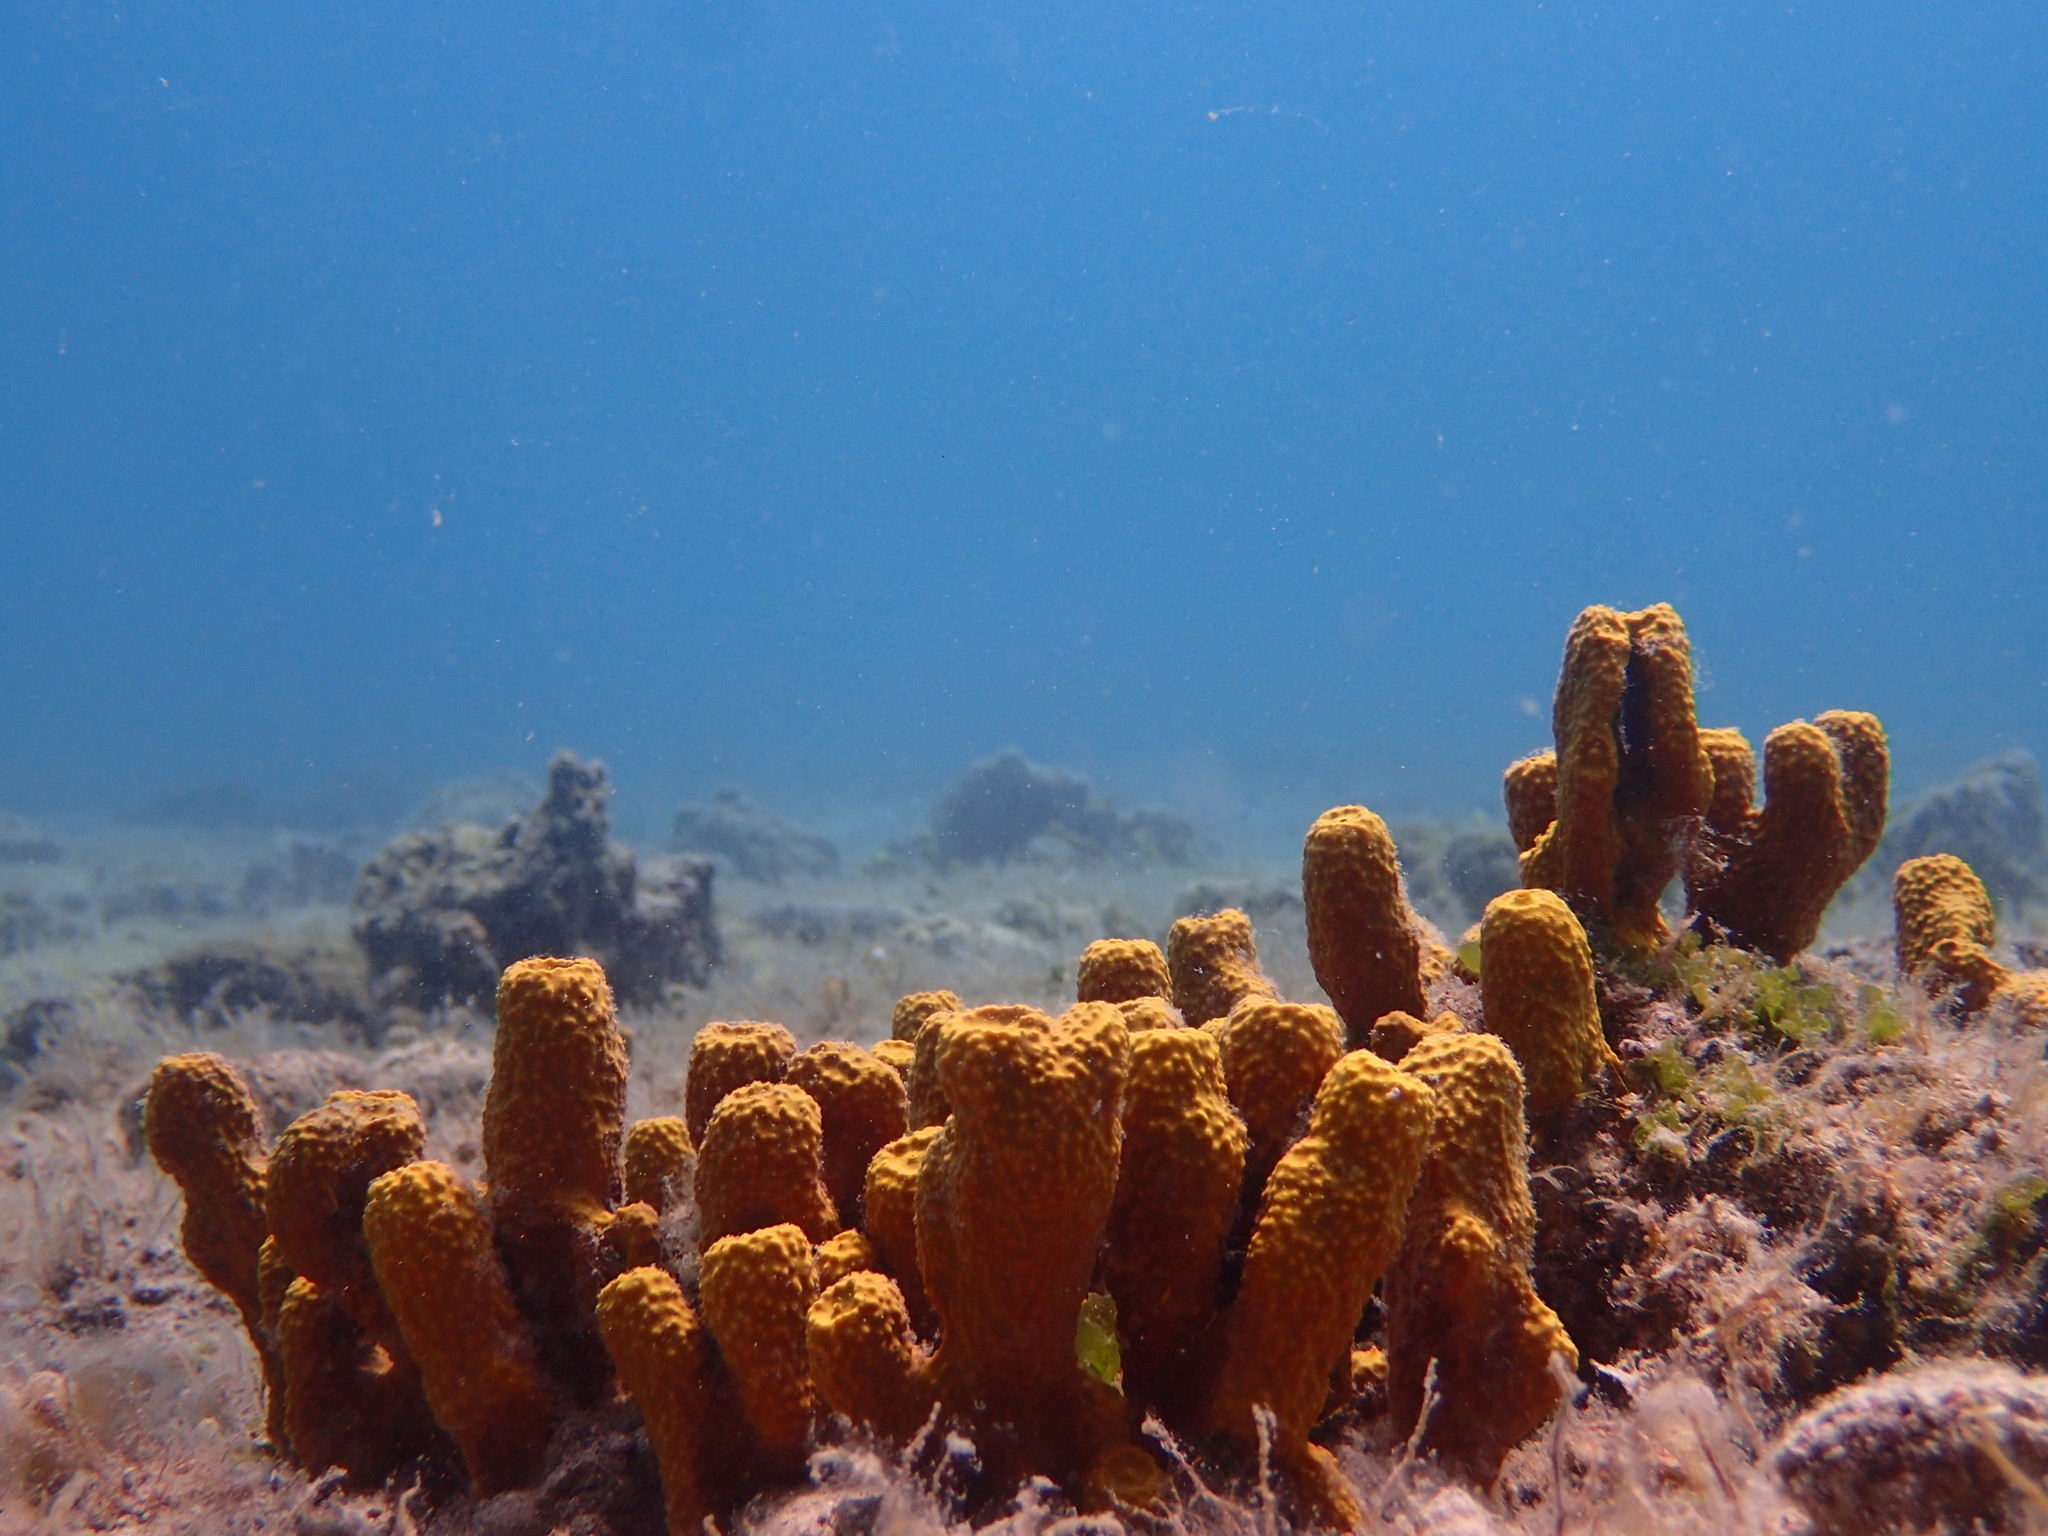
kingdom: Animalia
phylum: Porifera
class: Demospongiae
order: Verongiida
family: Aplysinidae
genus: Aplysina
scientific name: Aplysina aerophoba
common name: Aureate sponge
